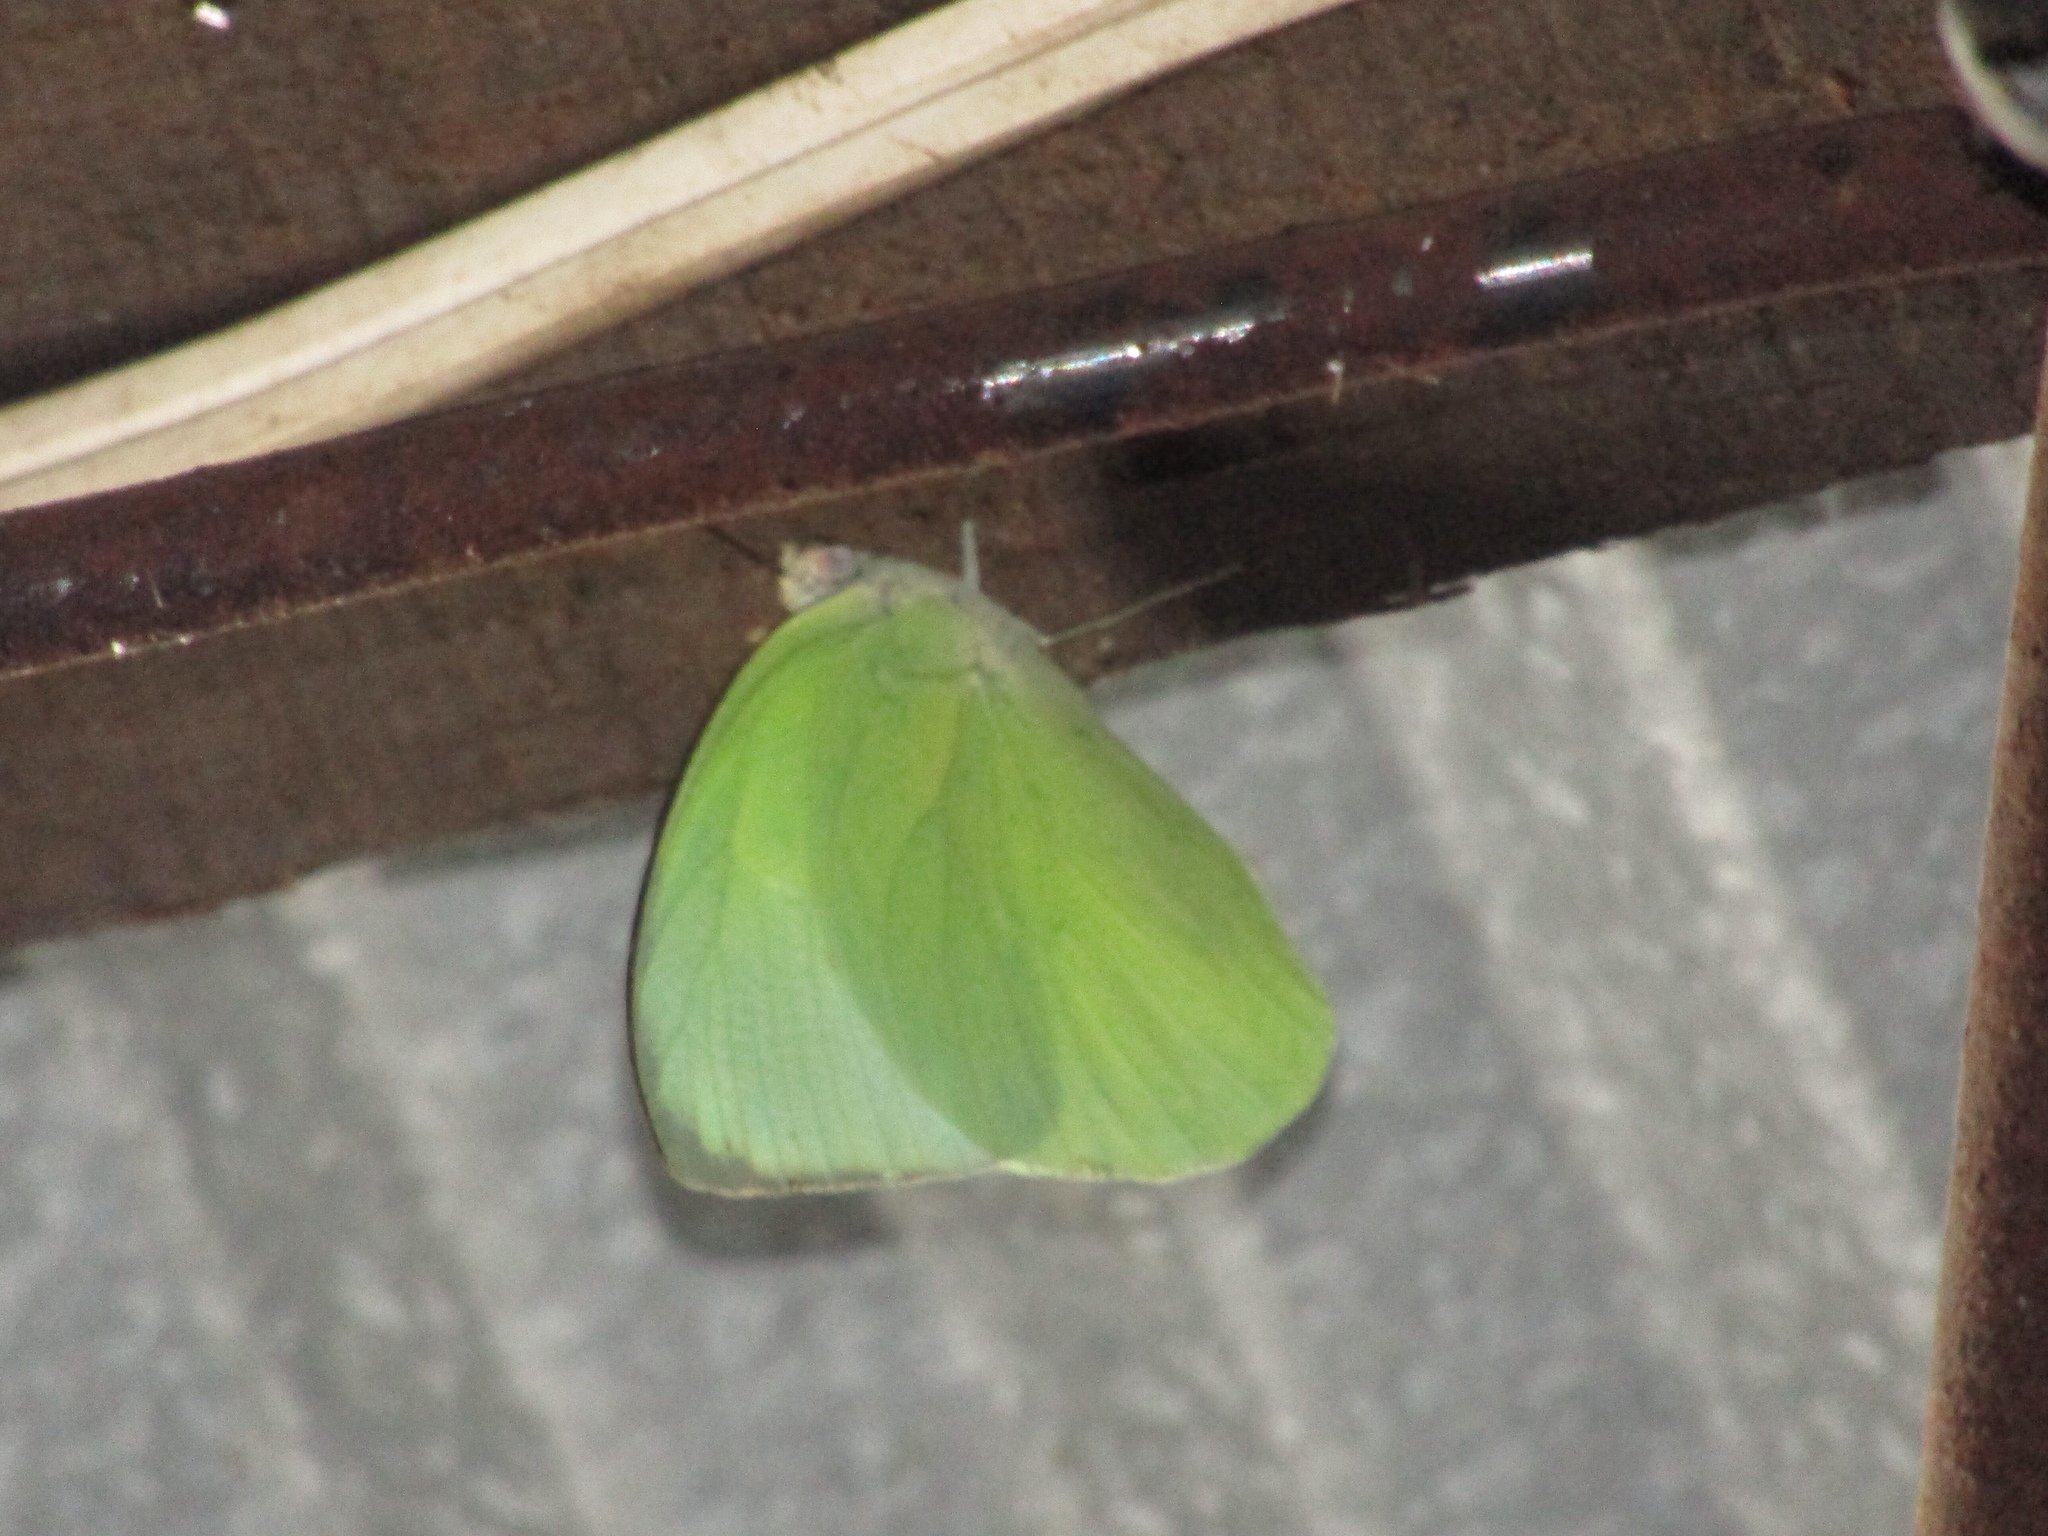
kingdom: Animalia
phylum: Arthropoda
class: Insecta
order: Lepidoptera
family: Pieridae
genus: Catopsilia
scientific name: Catopsilia pomona
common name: Common emigrant
